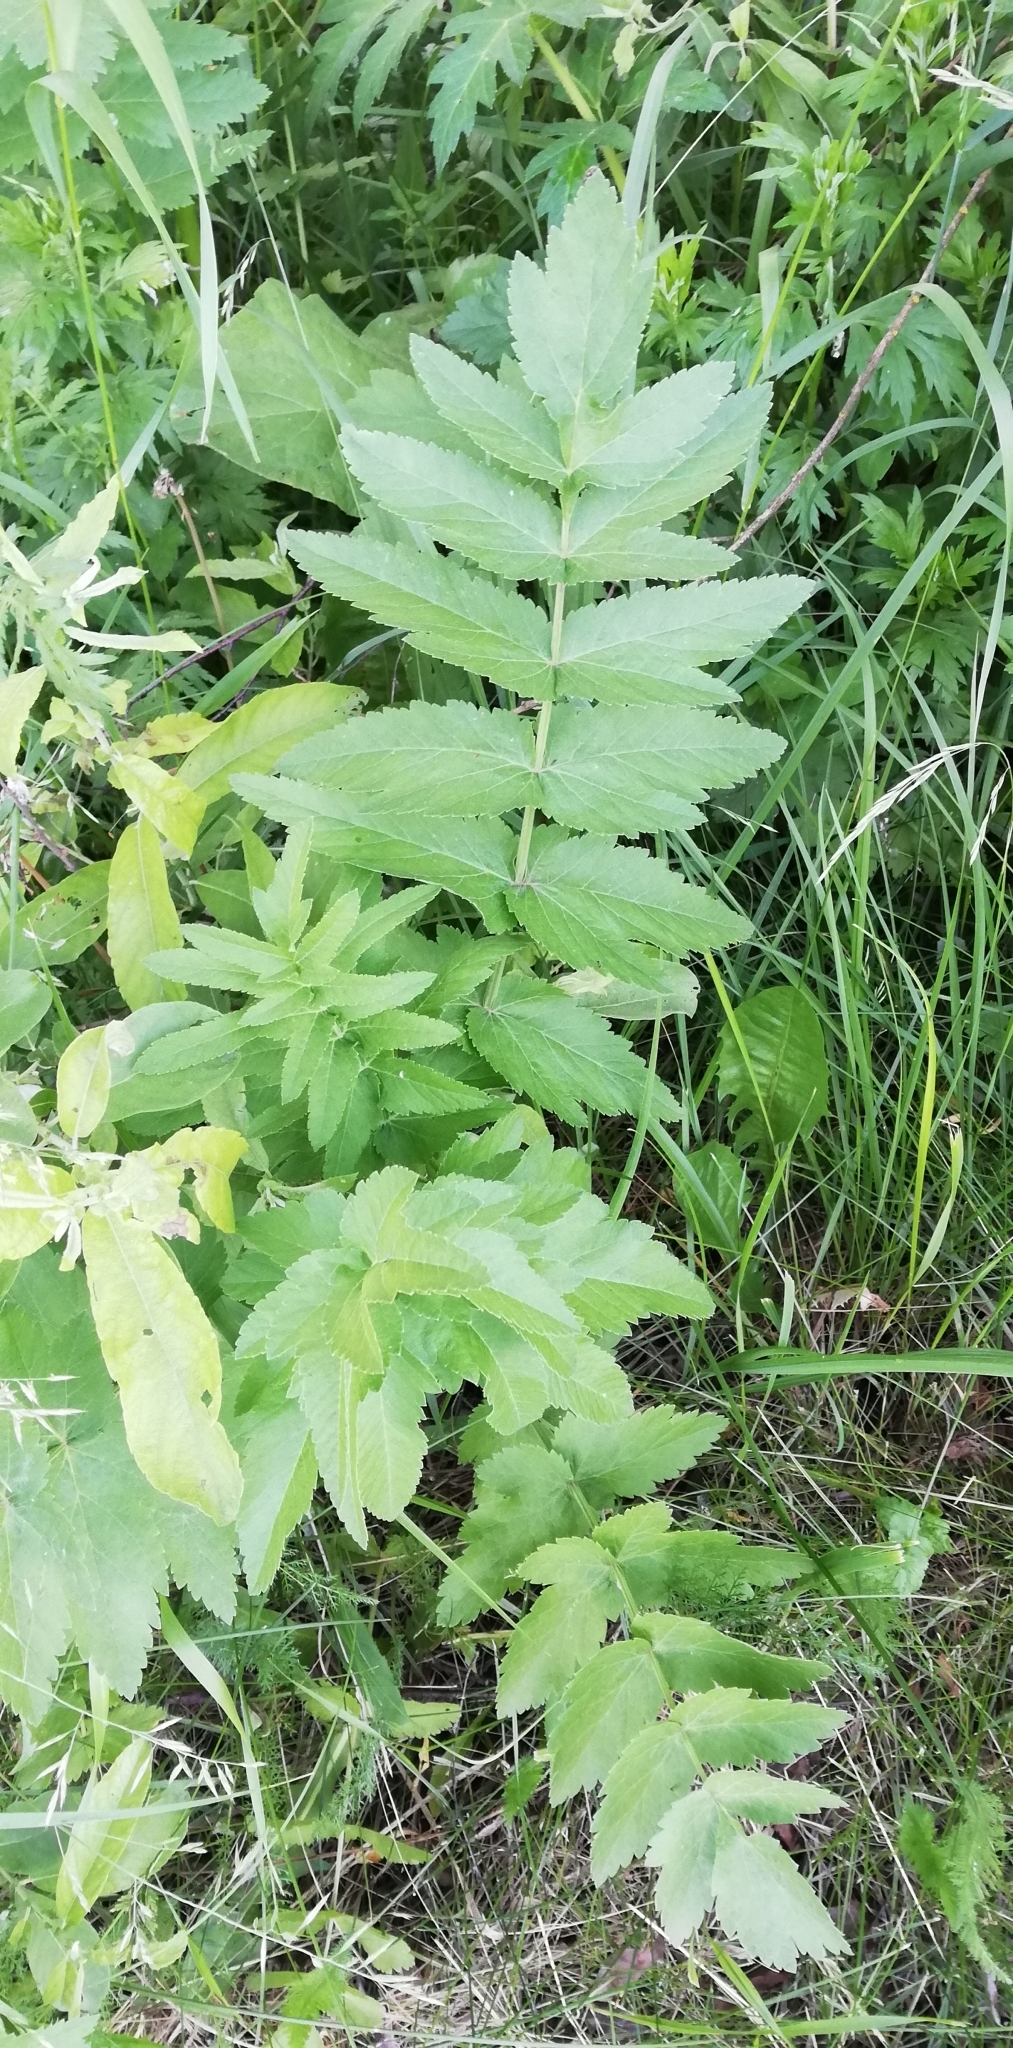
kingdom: Plantae
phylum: Tracheophyta
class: Magnoliopsida
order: Apiales
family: Apiaceae
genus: Pastinaca
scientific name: Pastinaca sativa
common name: Wild parsnip
